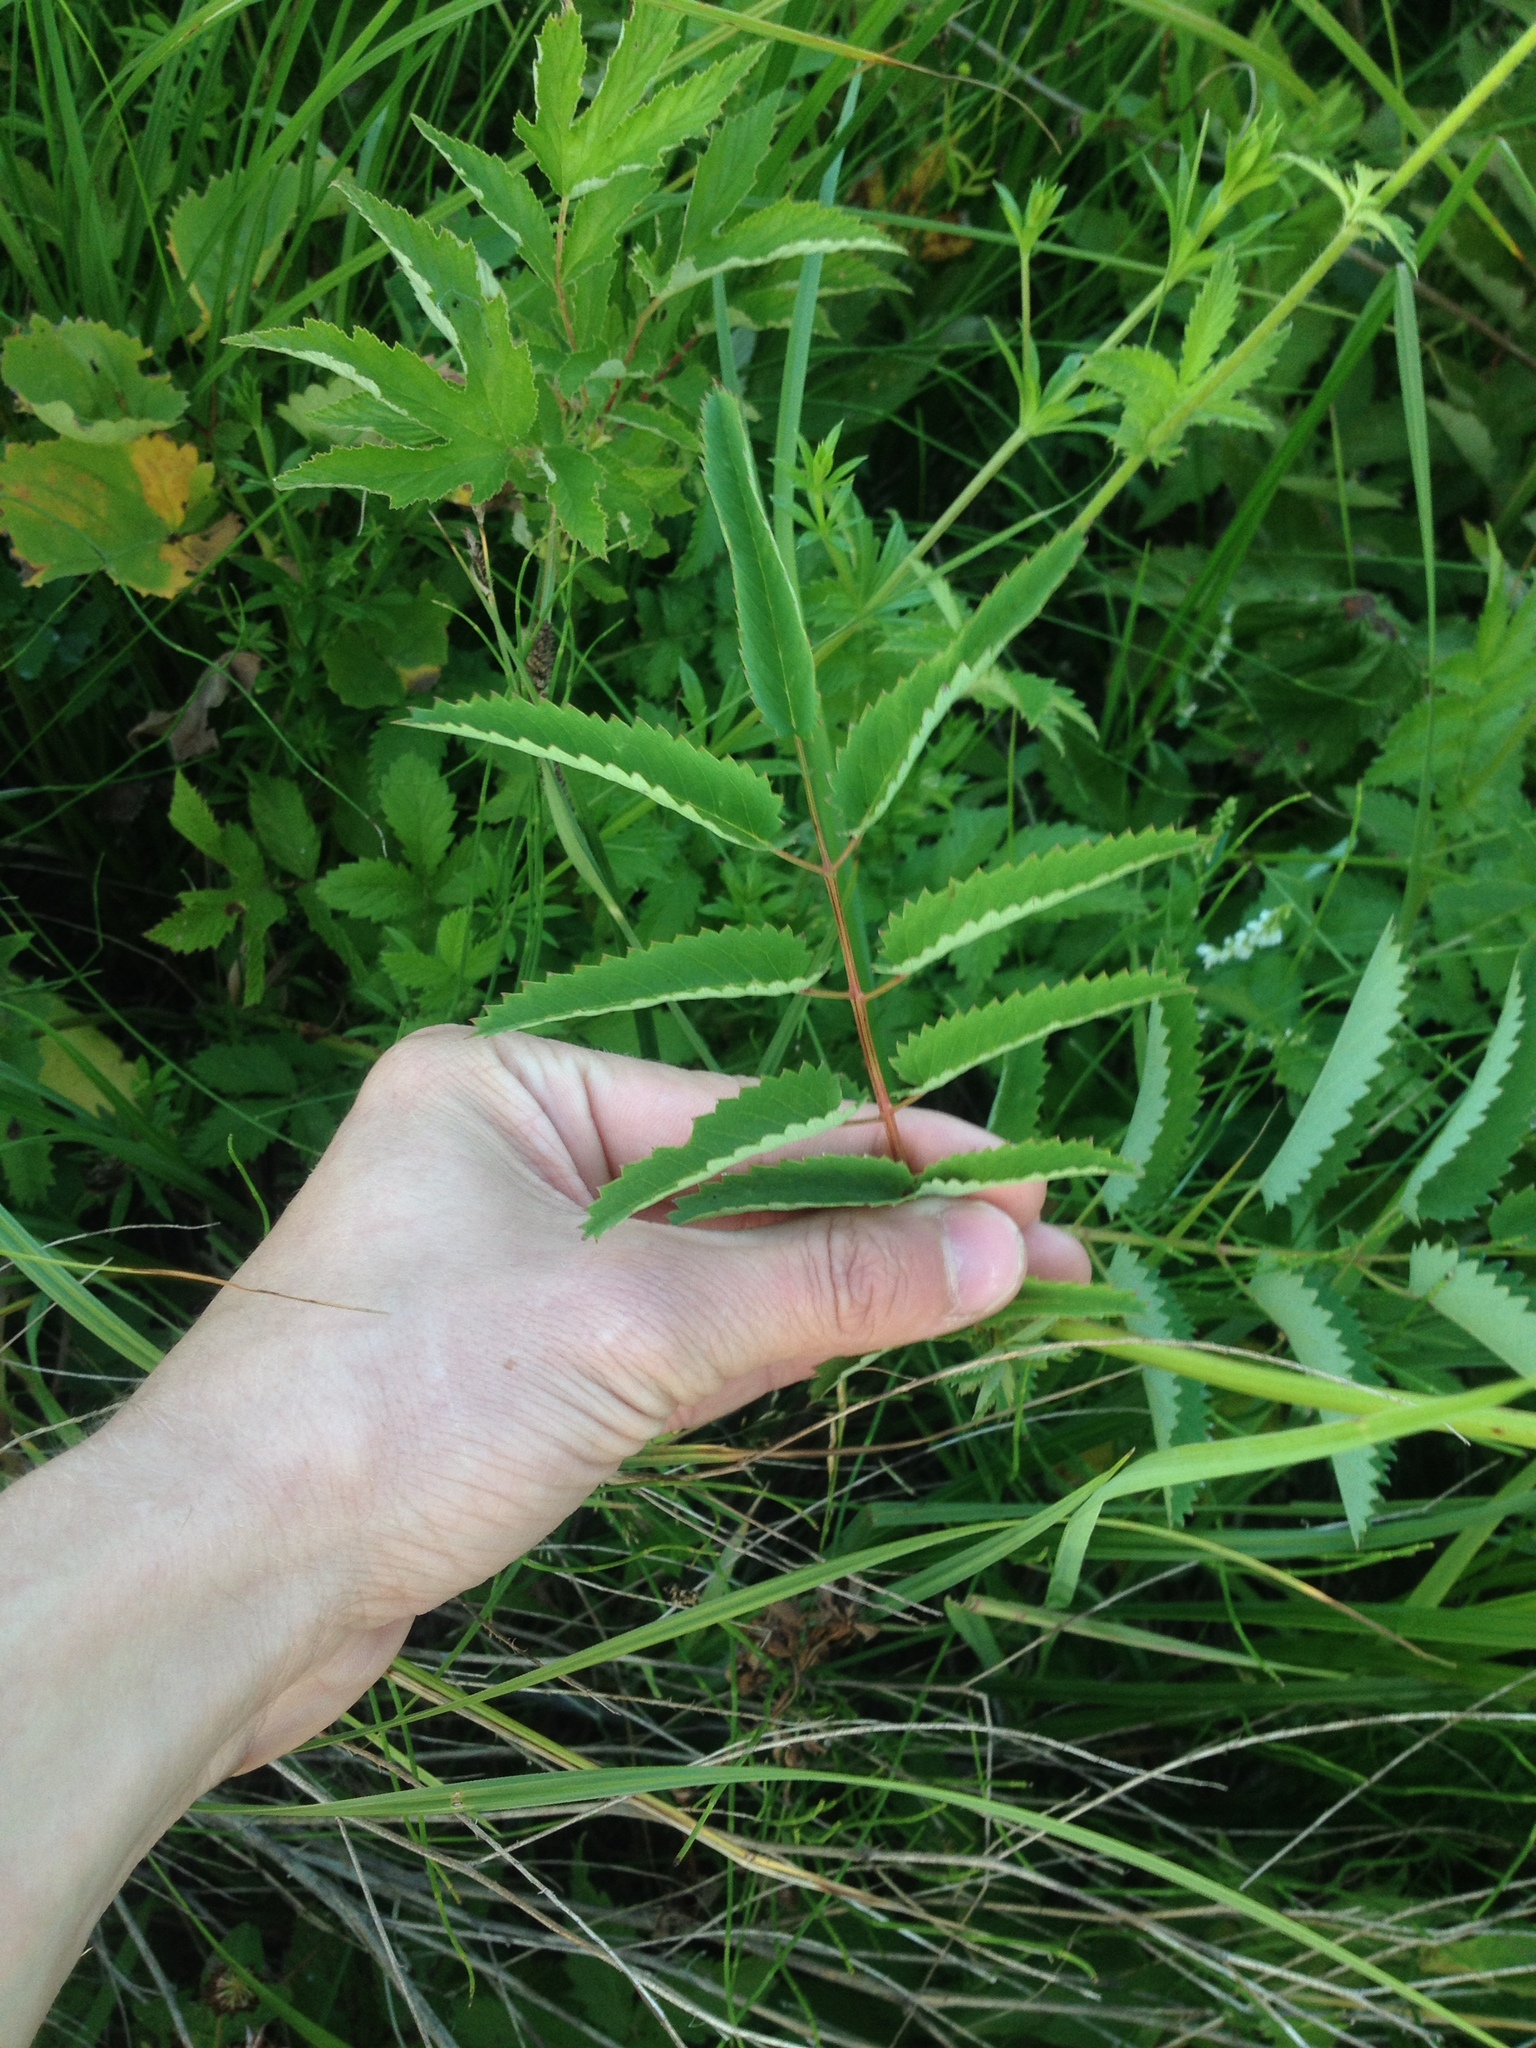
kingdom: Plantae
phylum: Tracheophyta
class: Magnoliopsida
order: Rosales
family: Rosaceae
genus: Sanguisorba
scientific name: Sanguisorba officinalis
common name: Great burnet
